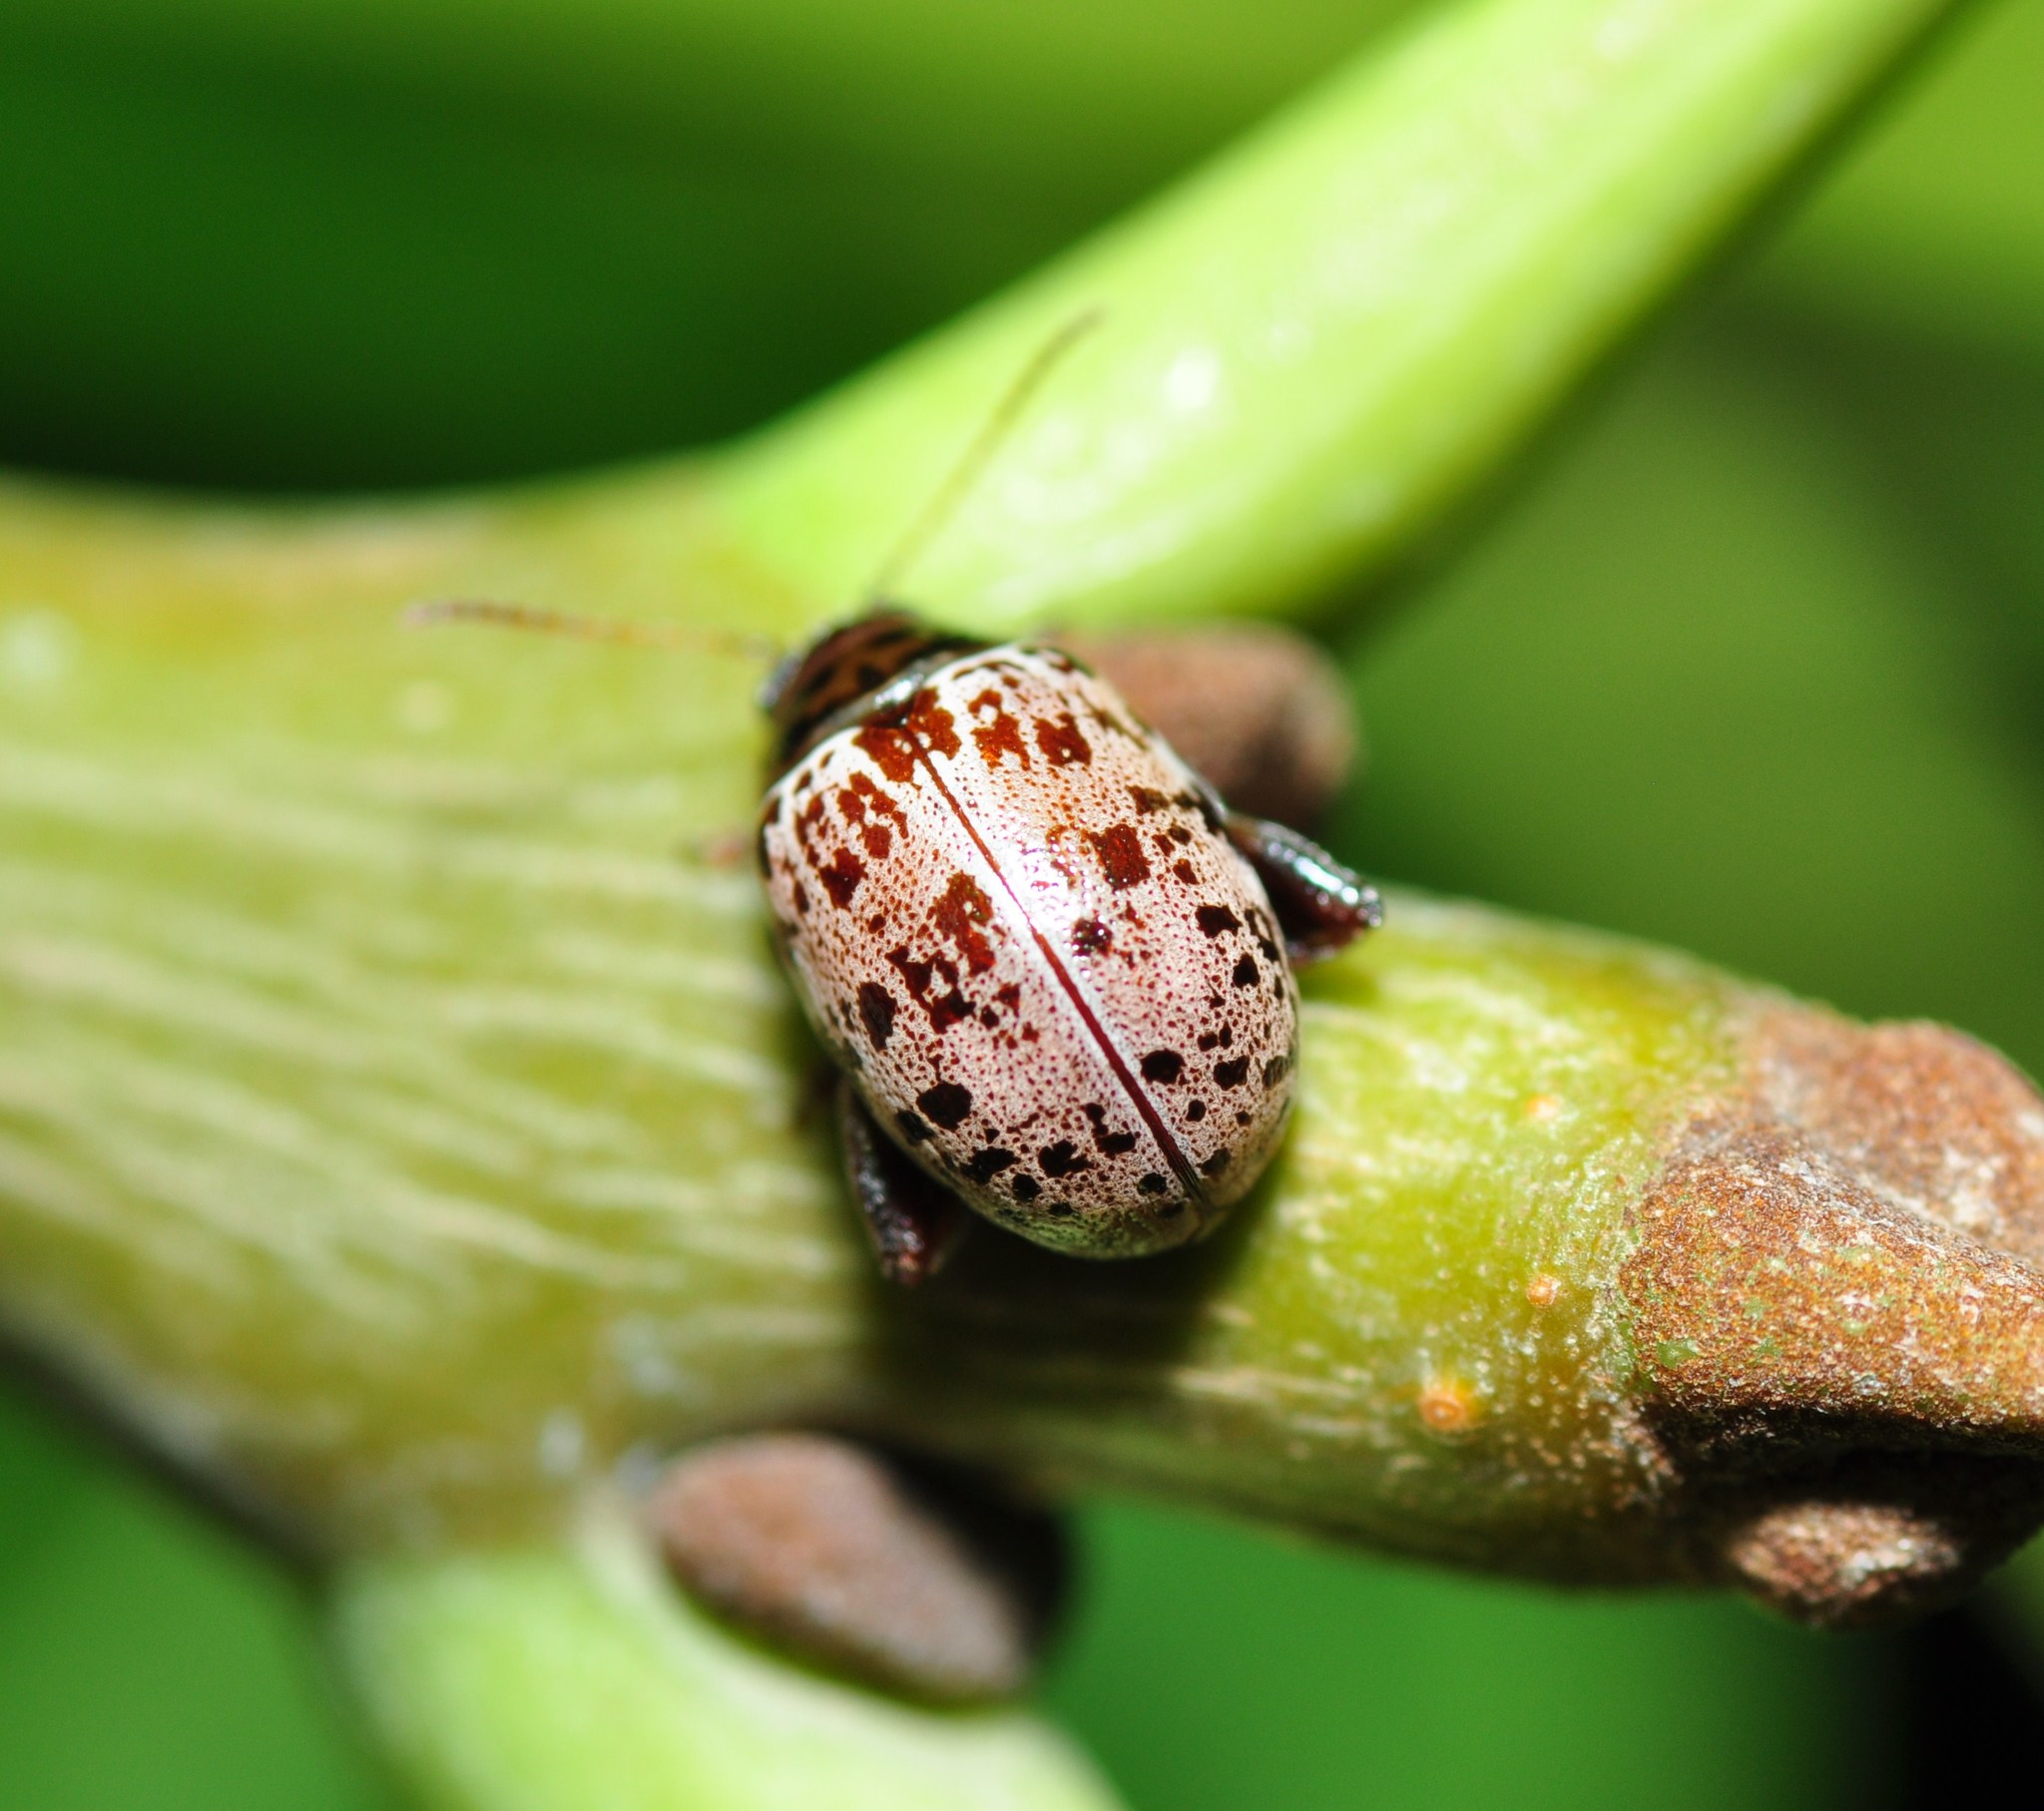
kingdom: Animalia
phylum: Arthropoda
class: Insecta
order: Coleoptera
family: Chrysomelidae
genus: Blepharida
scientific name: Blepharida
